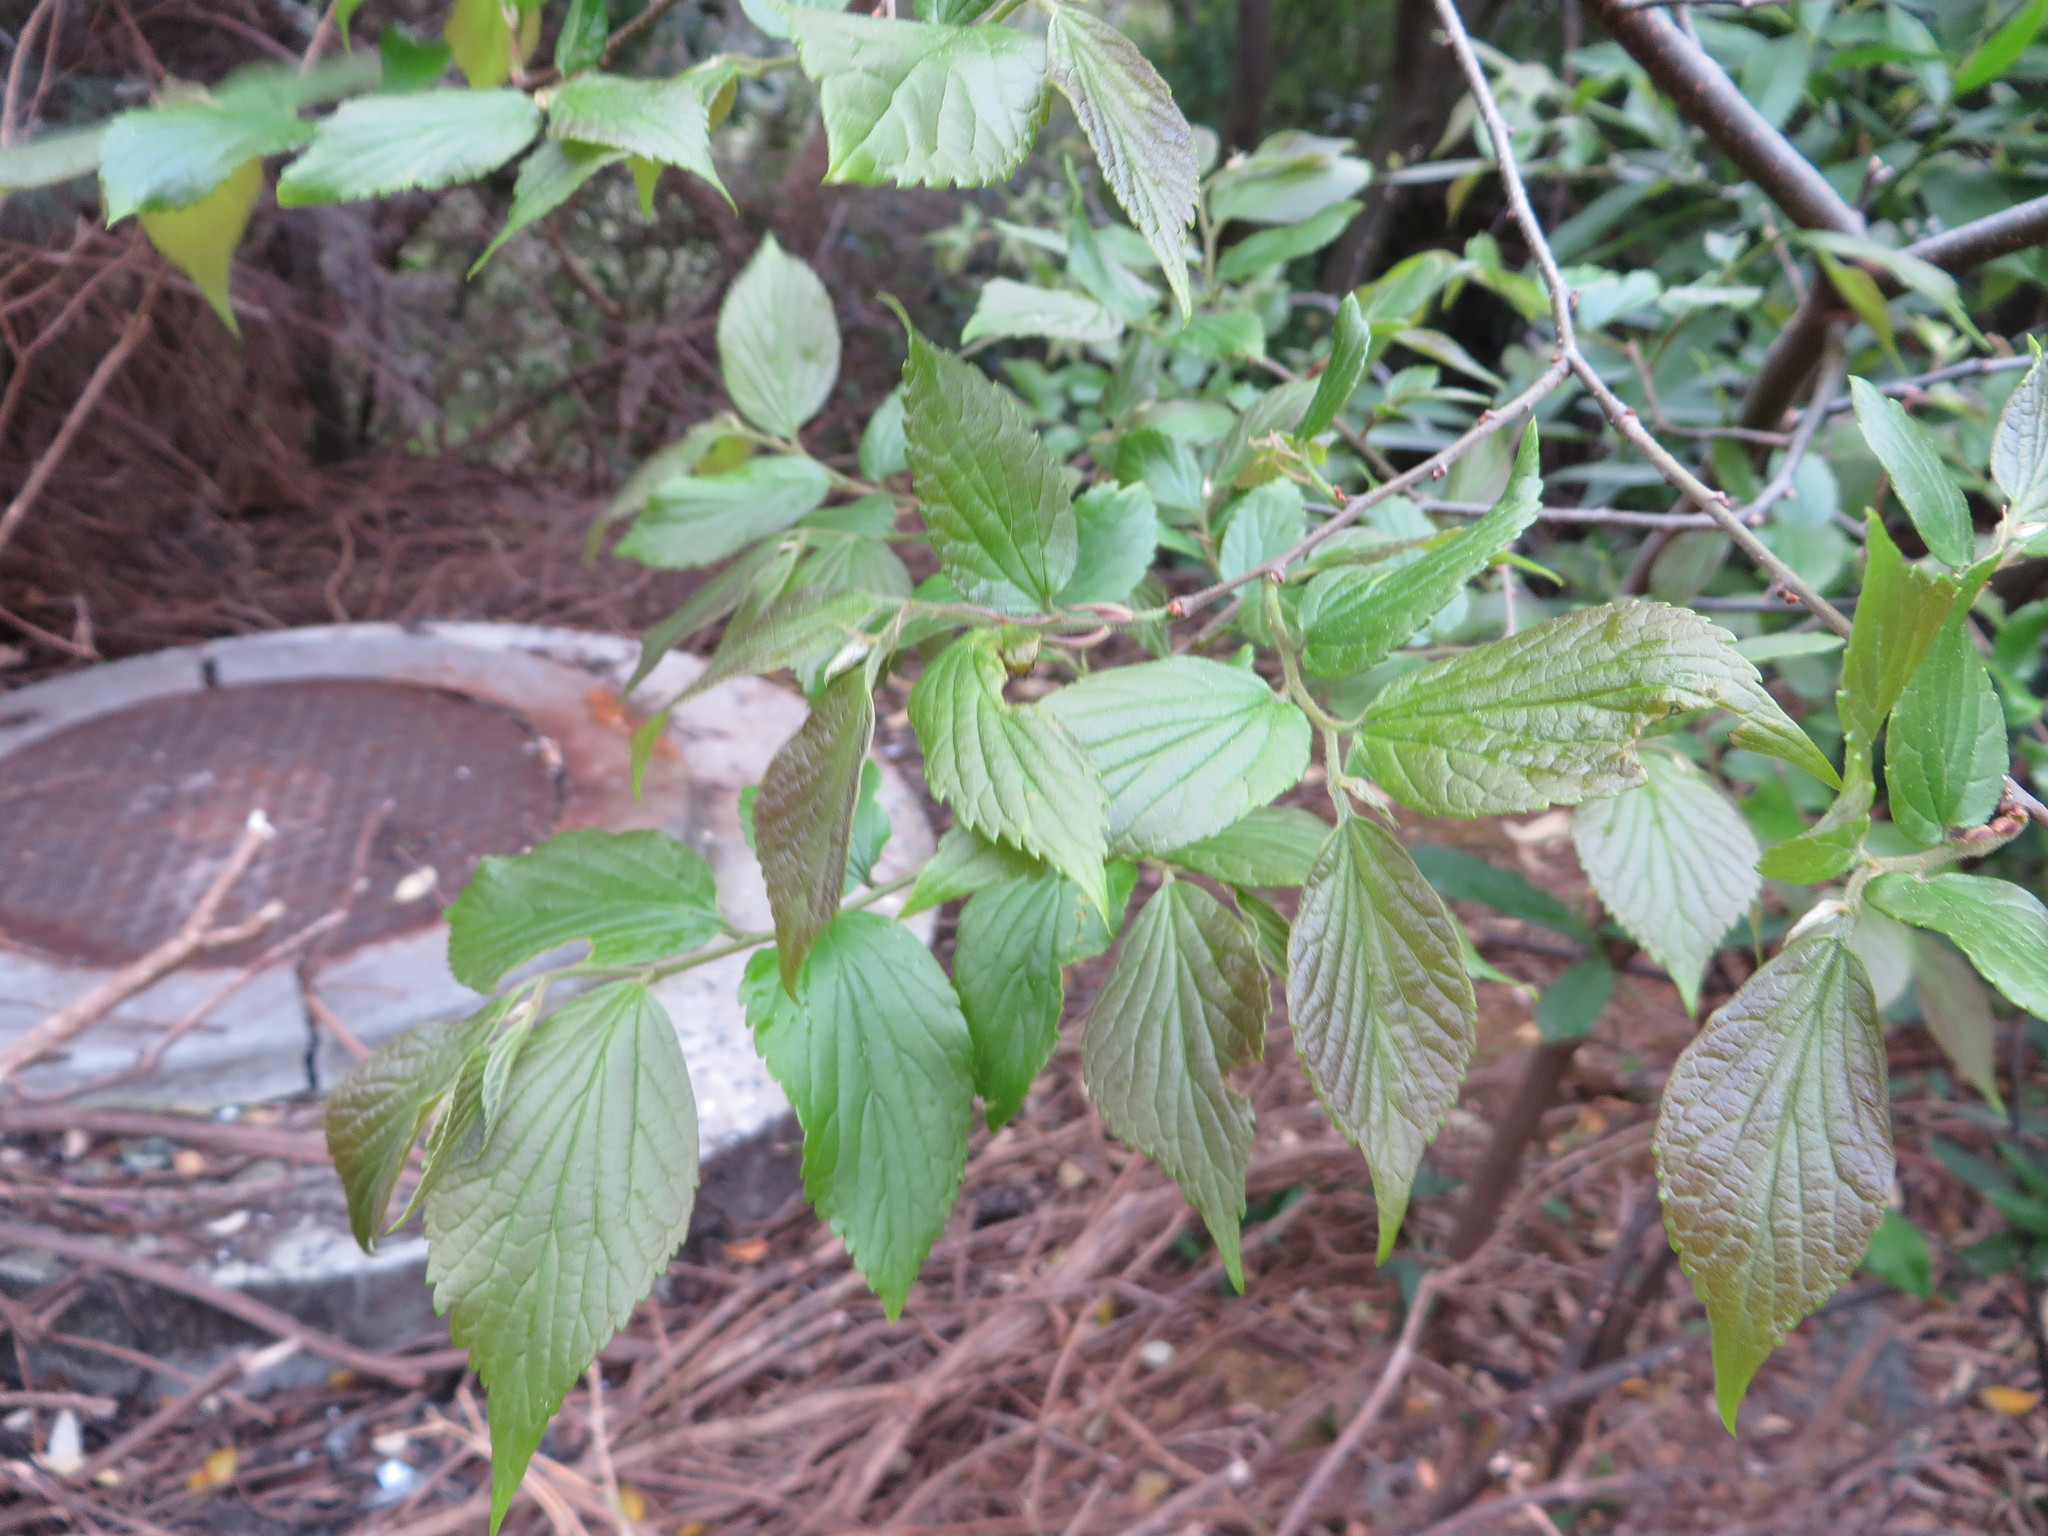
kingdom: Plantae
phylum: Tracheophyta
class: Magnoliopsida
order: Rosales
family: Cannabaceae
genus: Celtis
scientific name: Celtis sinensis
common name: Chinese hackberry
